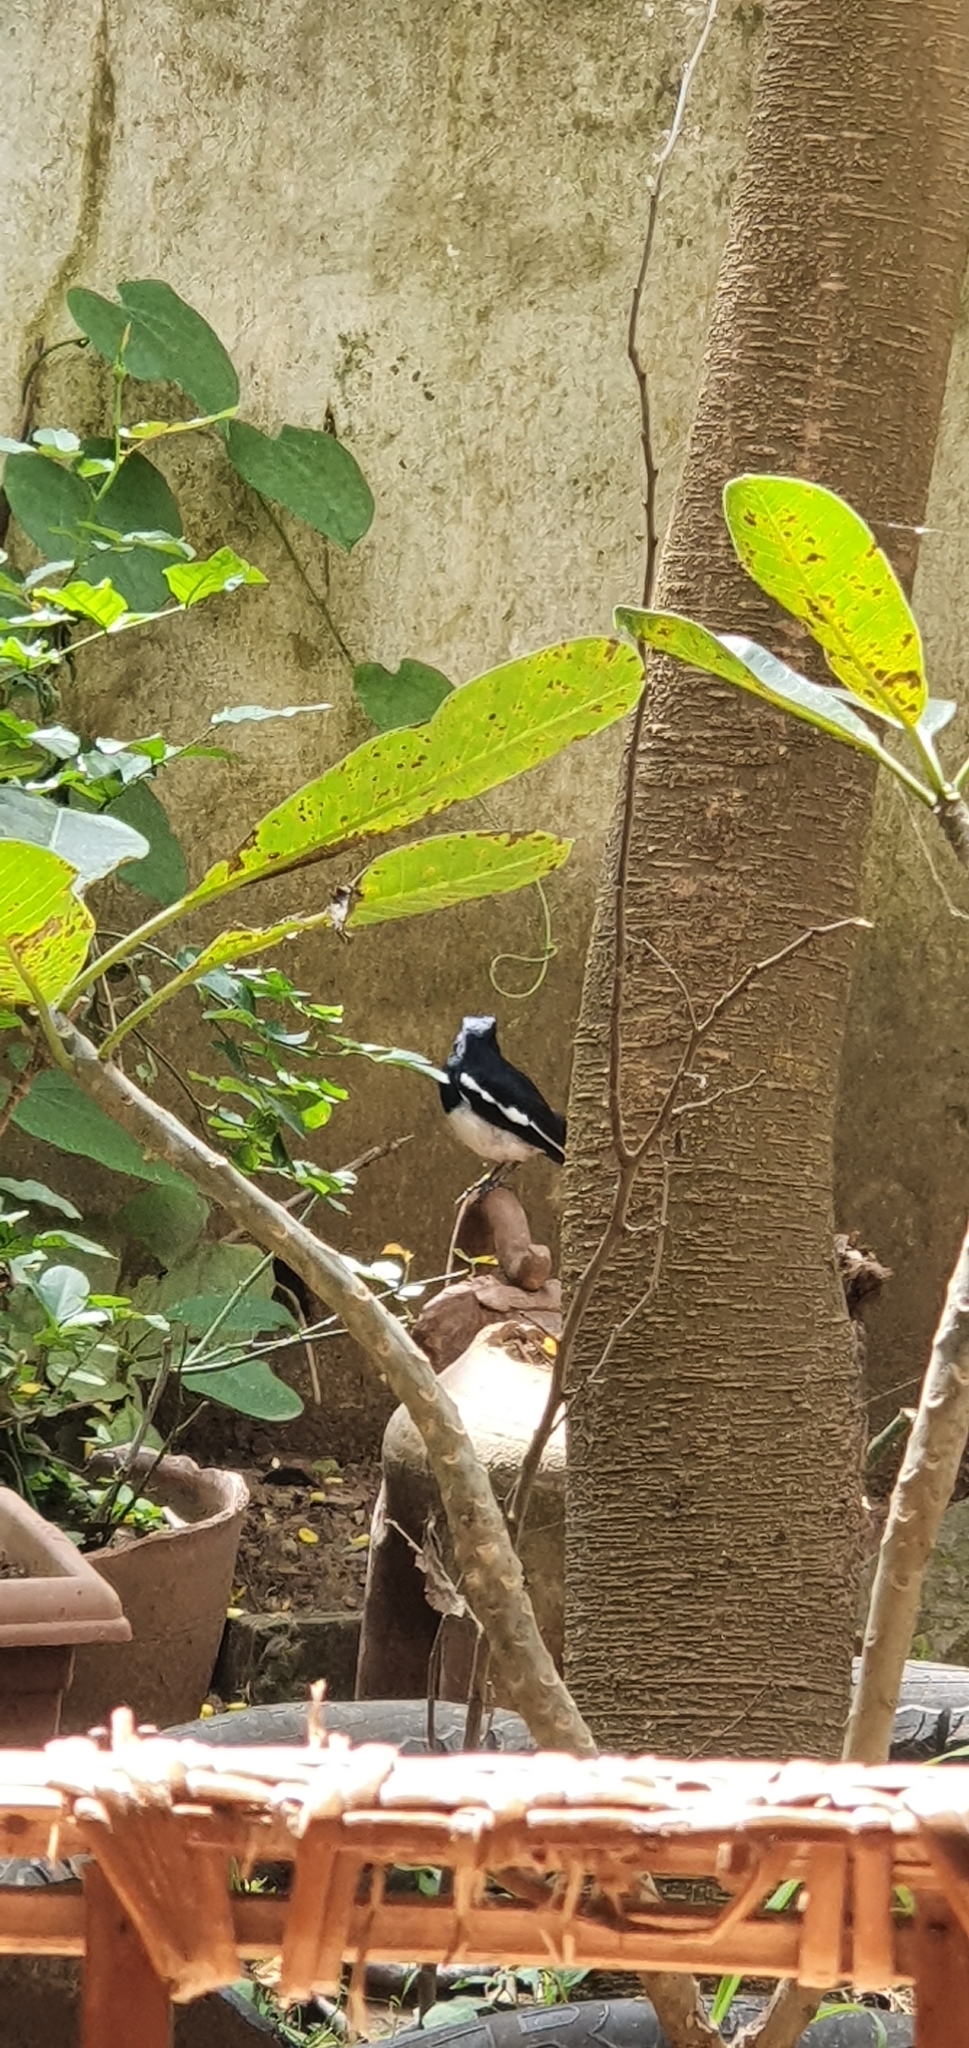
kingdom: Animalia
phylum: Chordata
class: Aves
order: Passeriformes
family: Muscicapidae
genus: Copsychus
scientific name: Copsychus saularis
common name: Oriental magpie-robin
